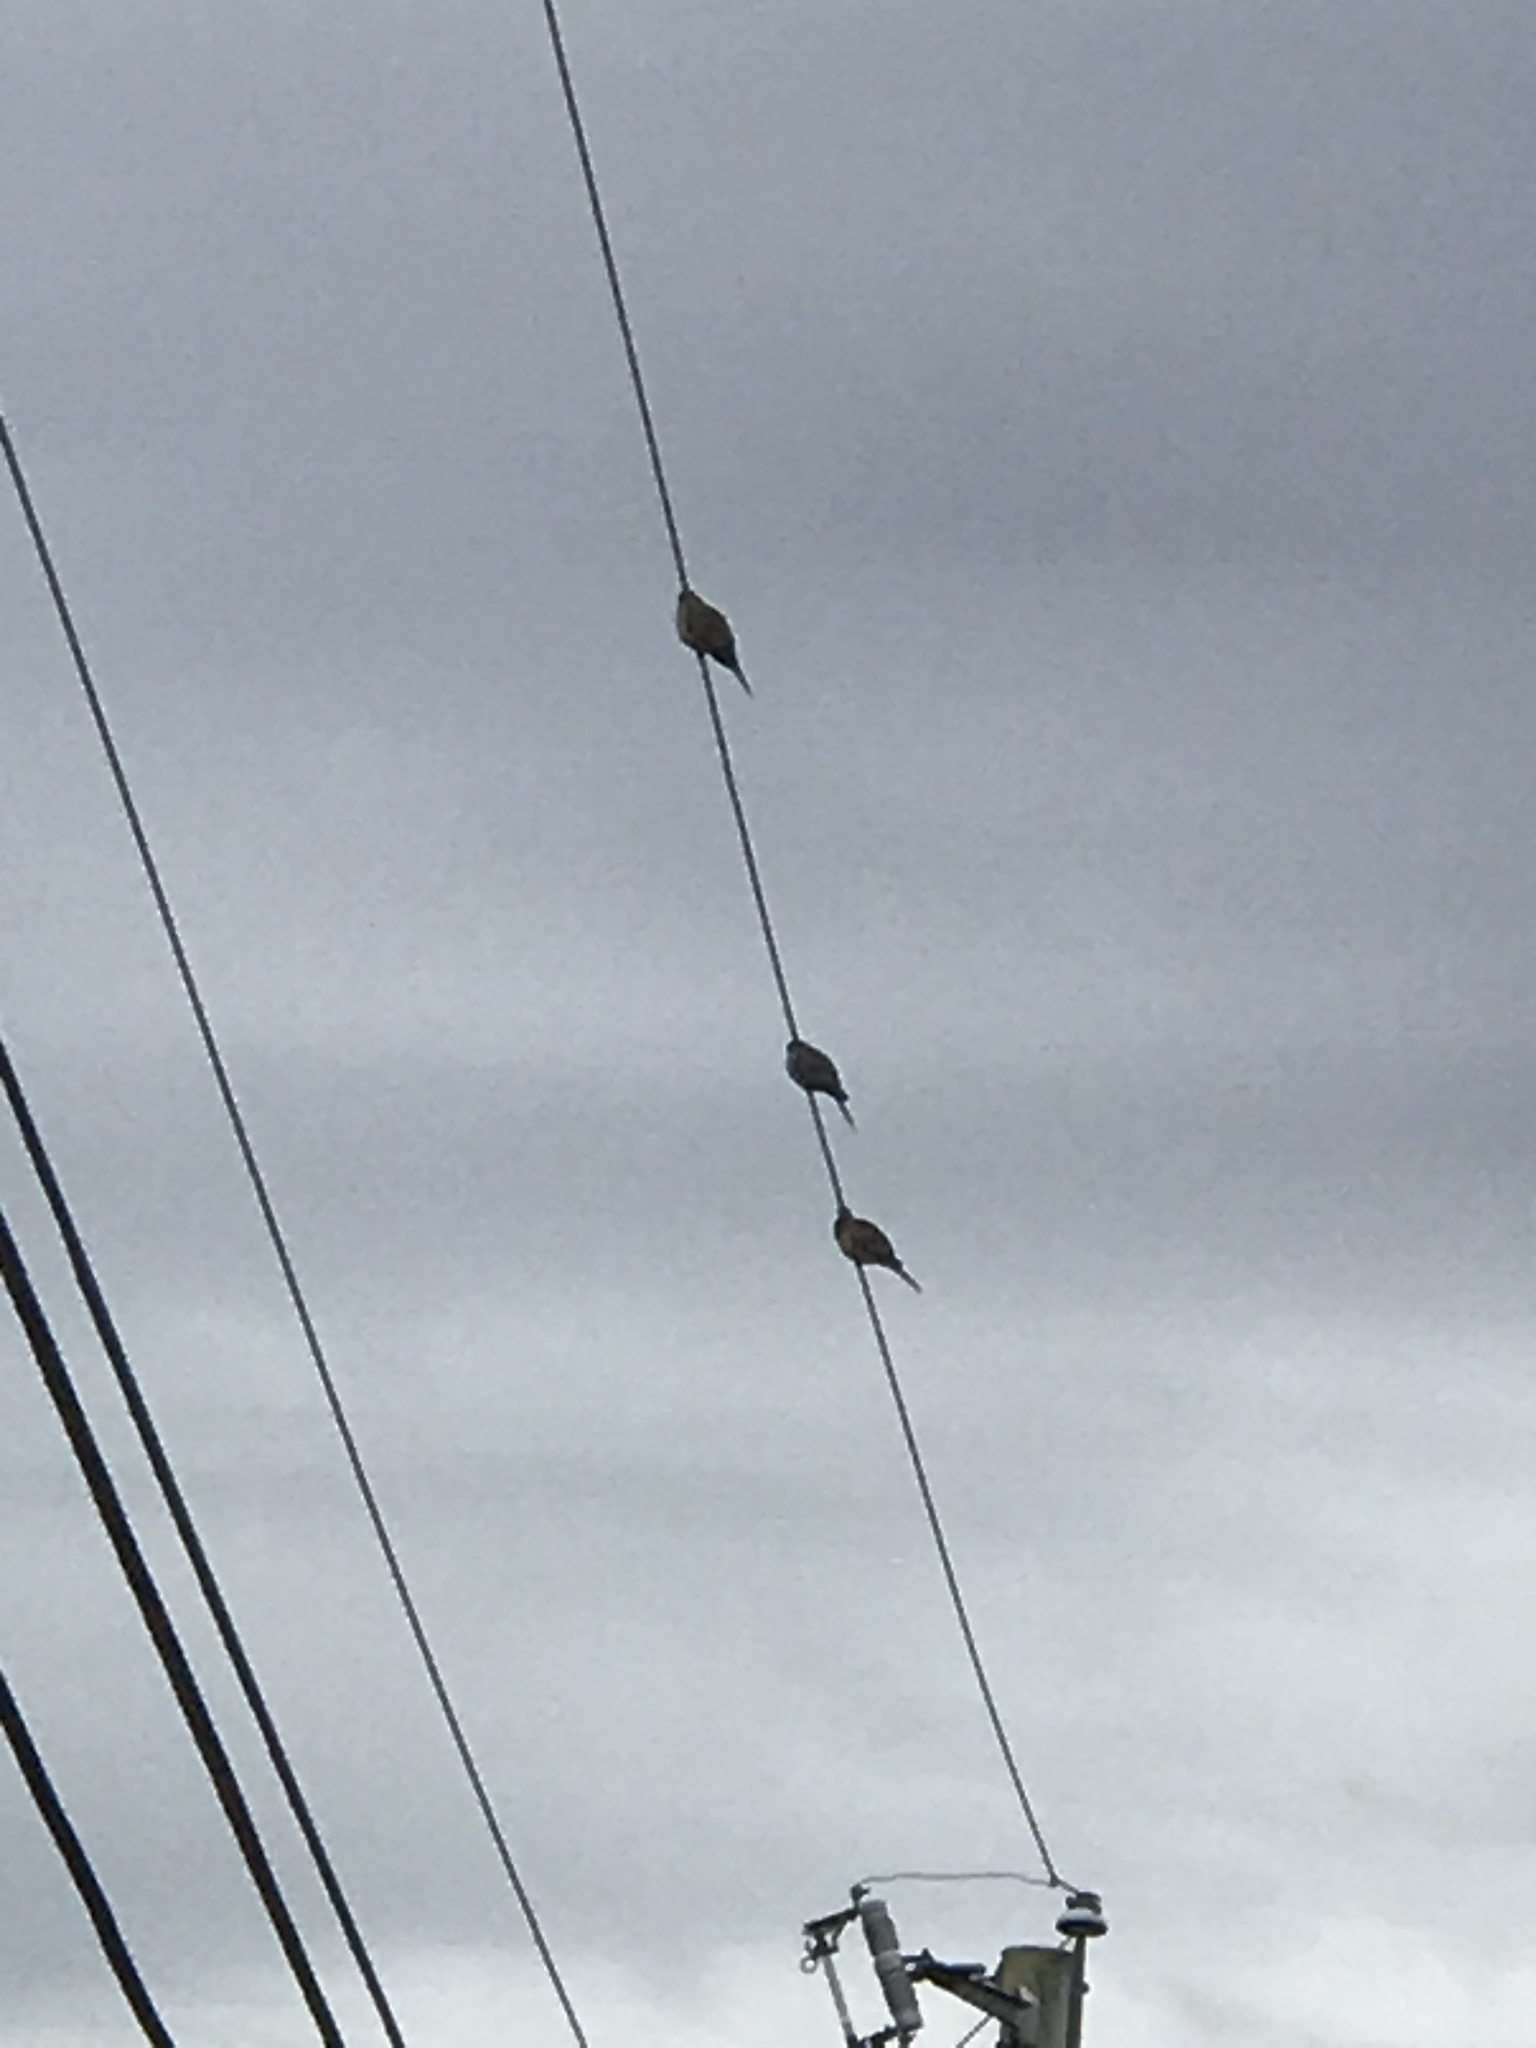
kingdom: Animalia
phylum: Chordata
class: Aves
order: Columbiformes
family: Columbidae
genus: Zenaida
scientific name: Zenaida macroura
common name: Mourning dove
